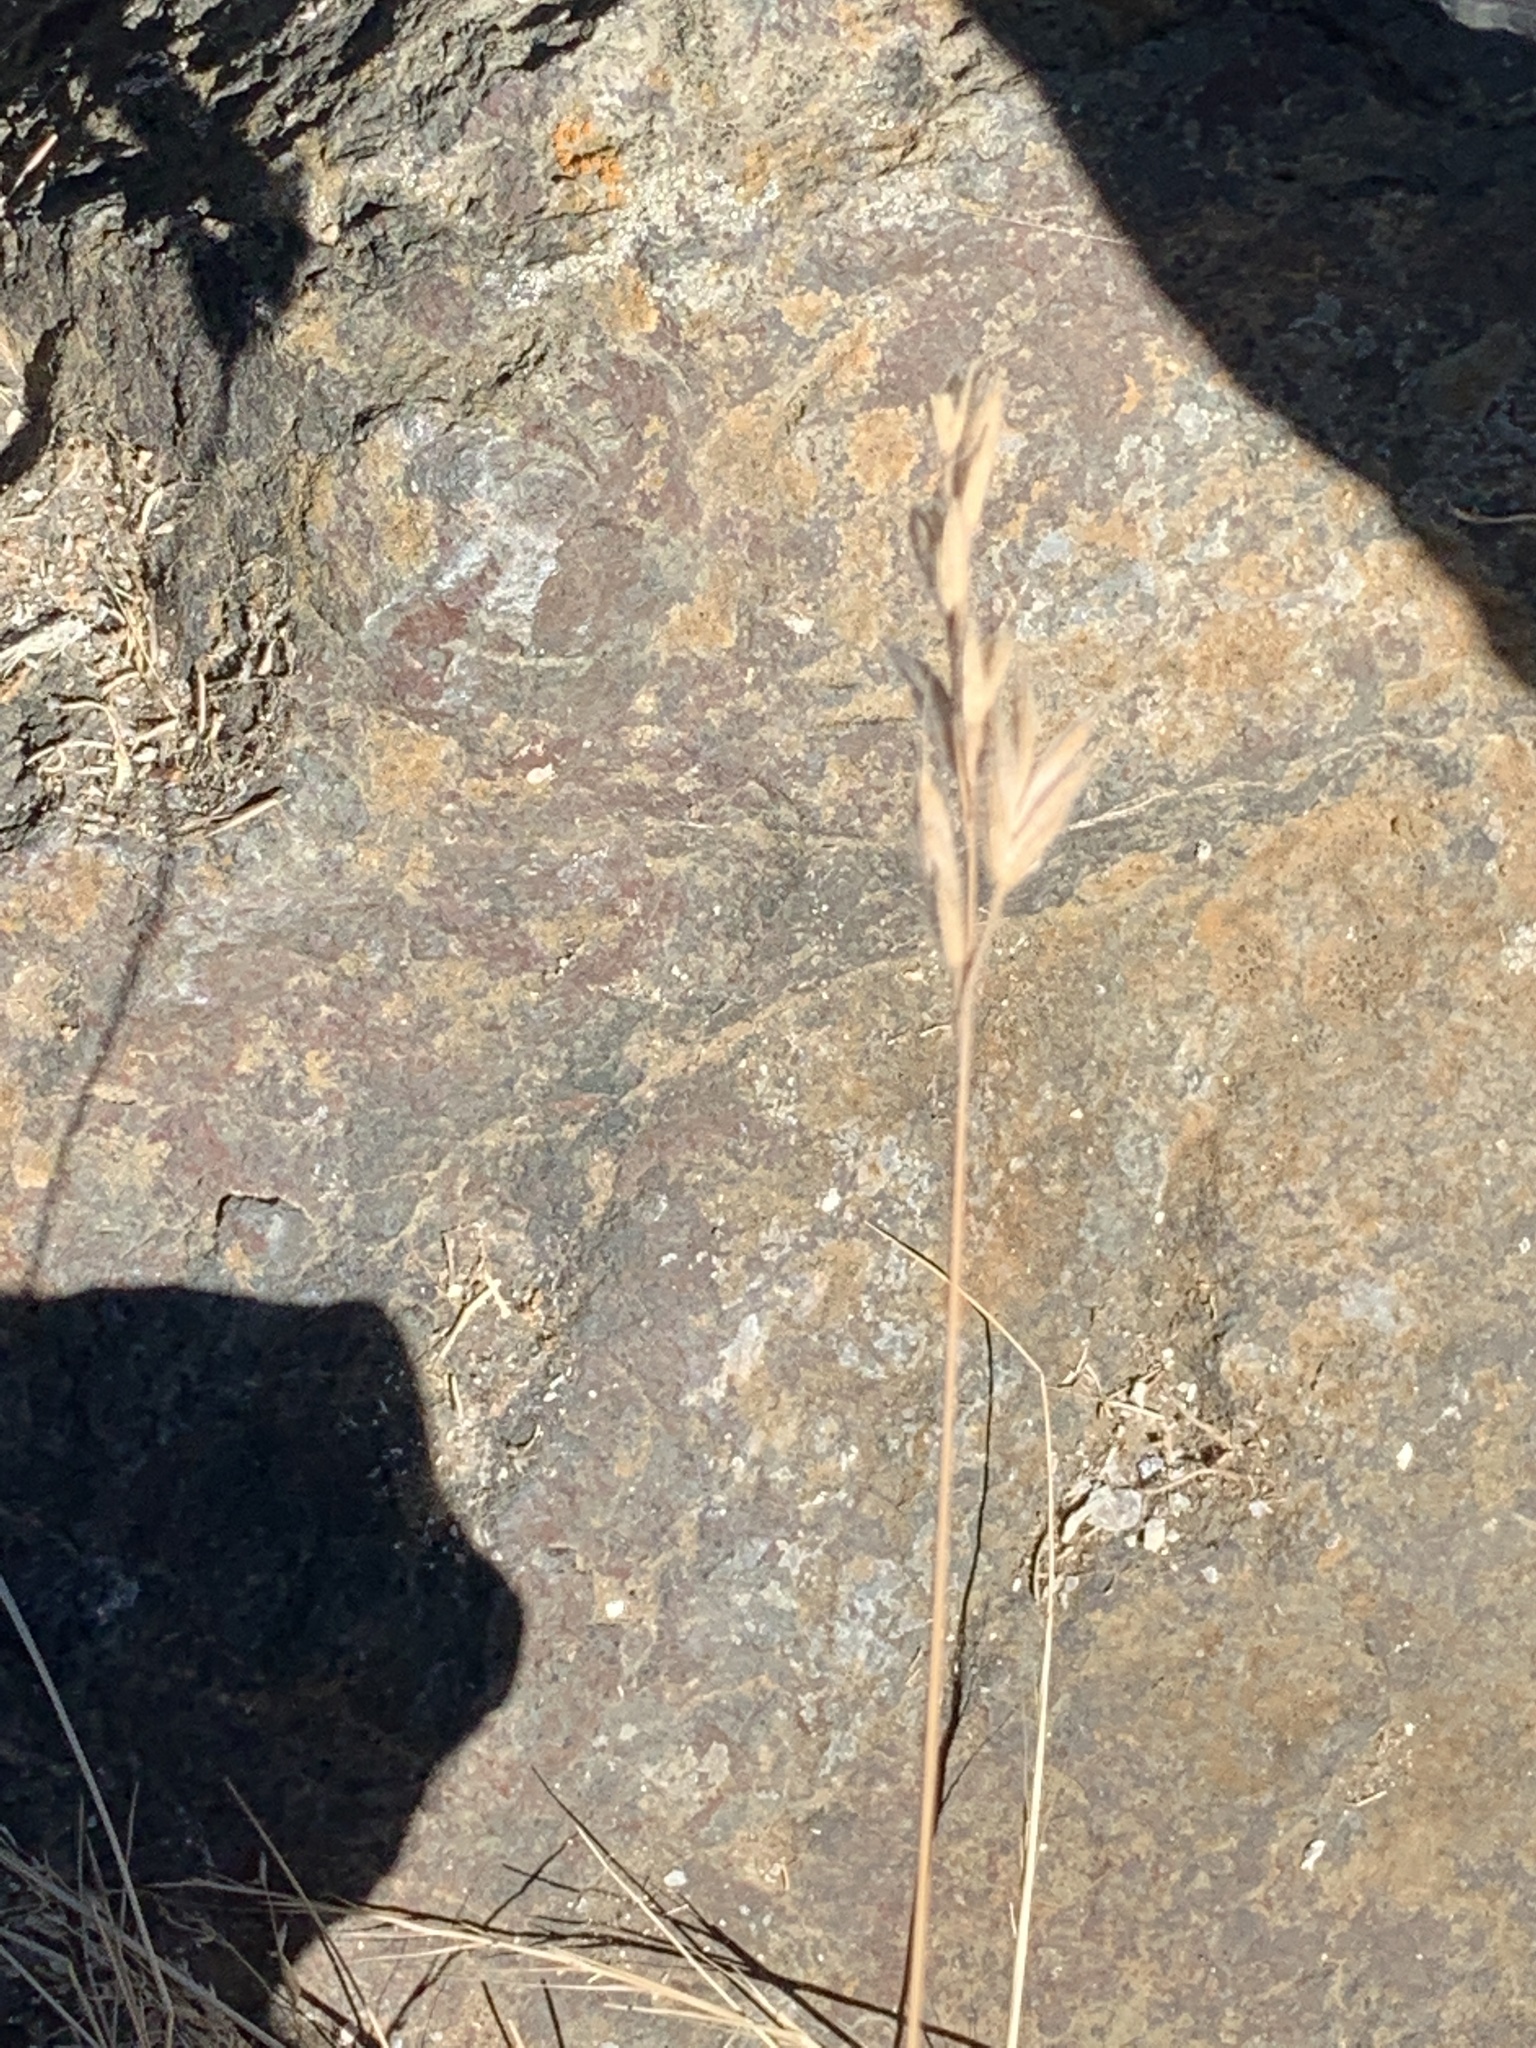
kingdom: Plantae
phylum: Tracheophyta
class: Liliopsida
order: Poales
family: Poaceae
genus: Bromus
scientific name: Bromus hordeaceus
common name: Soft brome
